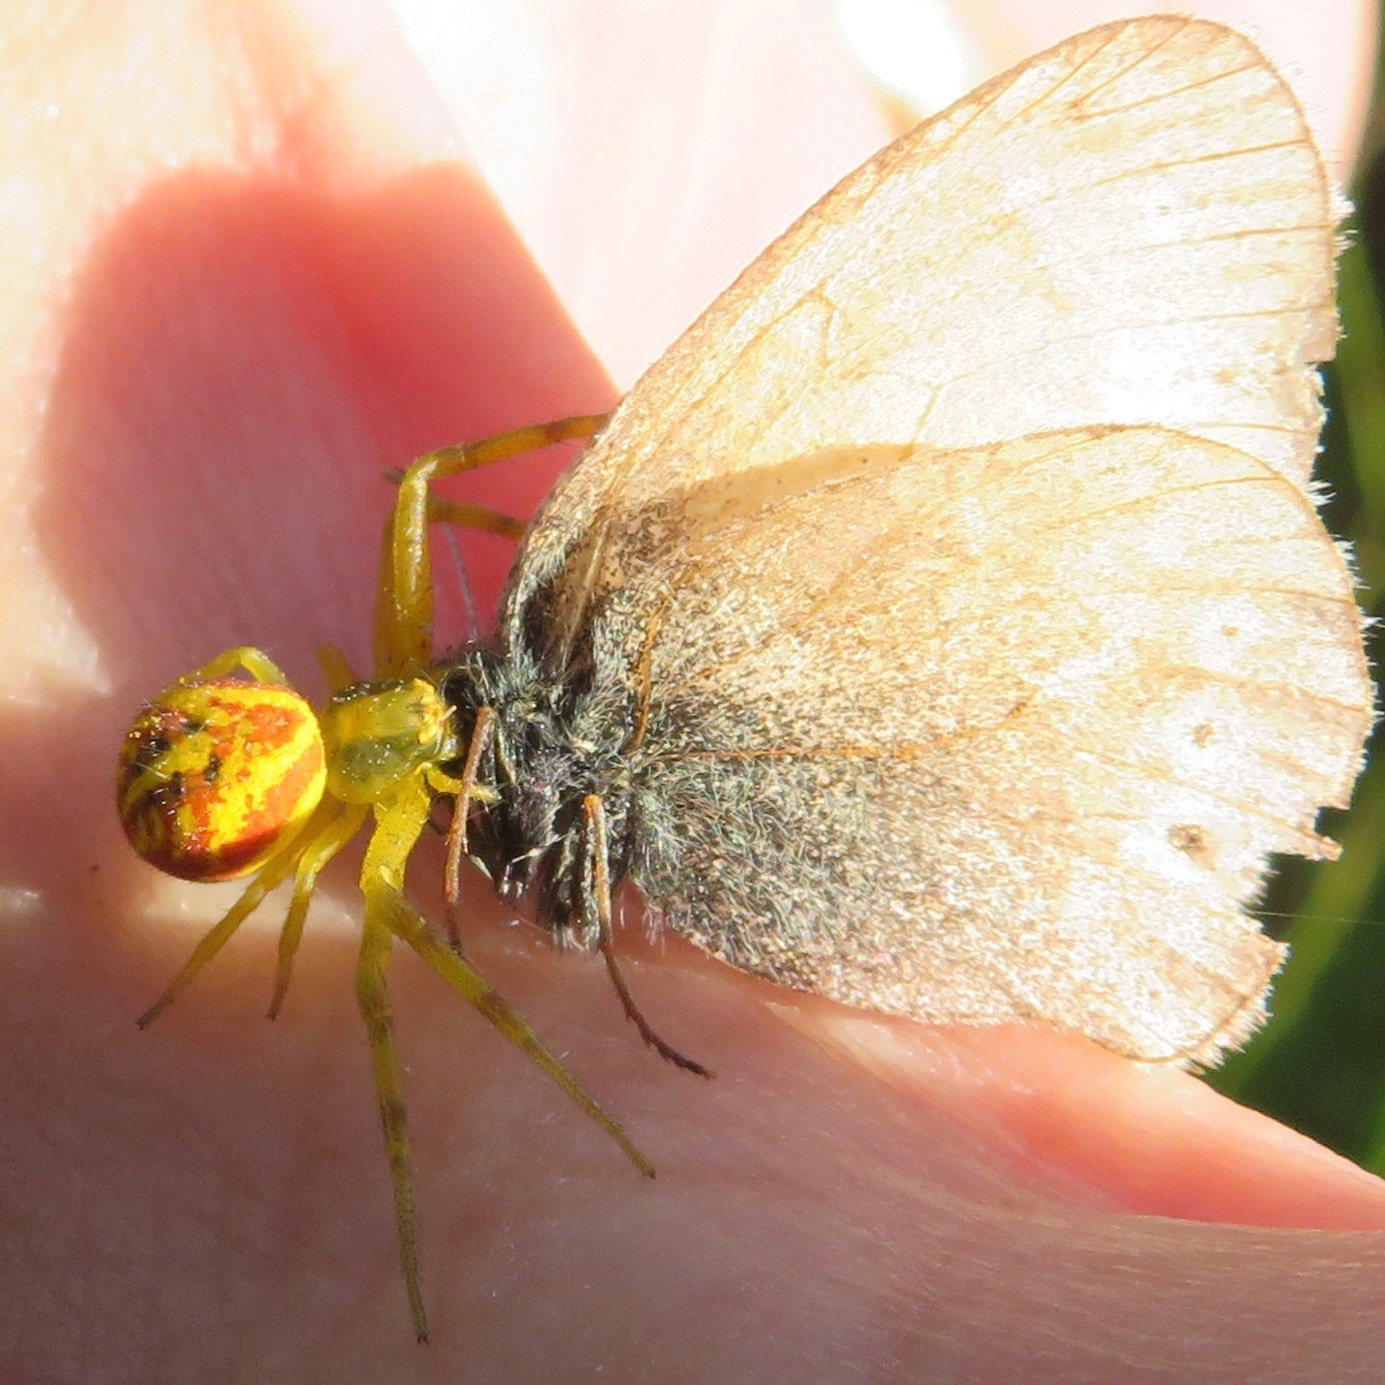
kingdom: Animalia
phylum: Arthropoda
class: Insecta
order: Lepidoptera
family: Nymphalidae
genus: Coenonympha
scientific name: Coenonympha california
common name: Common ringlet
